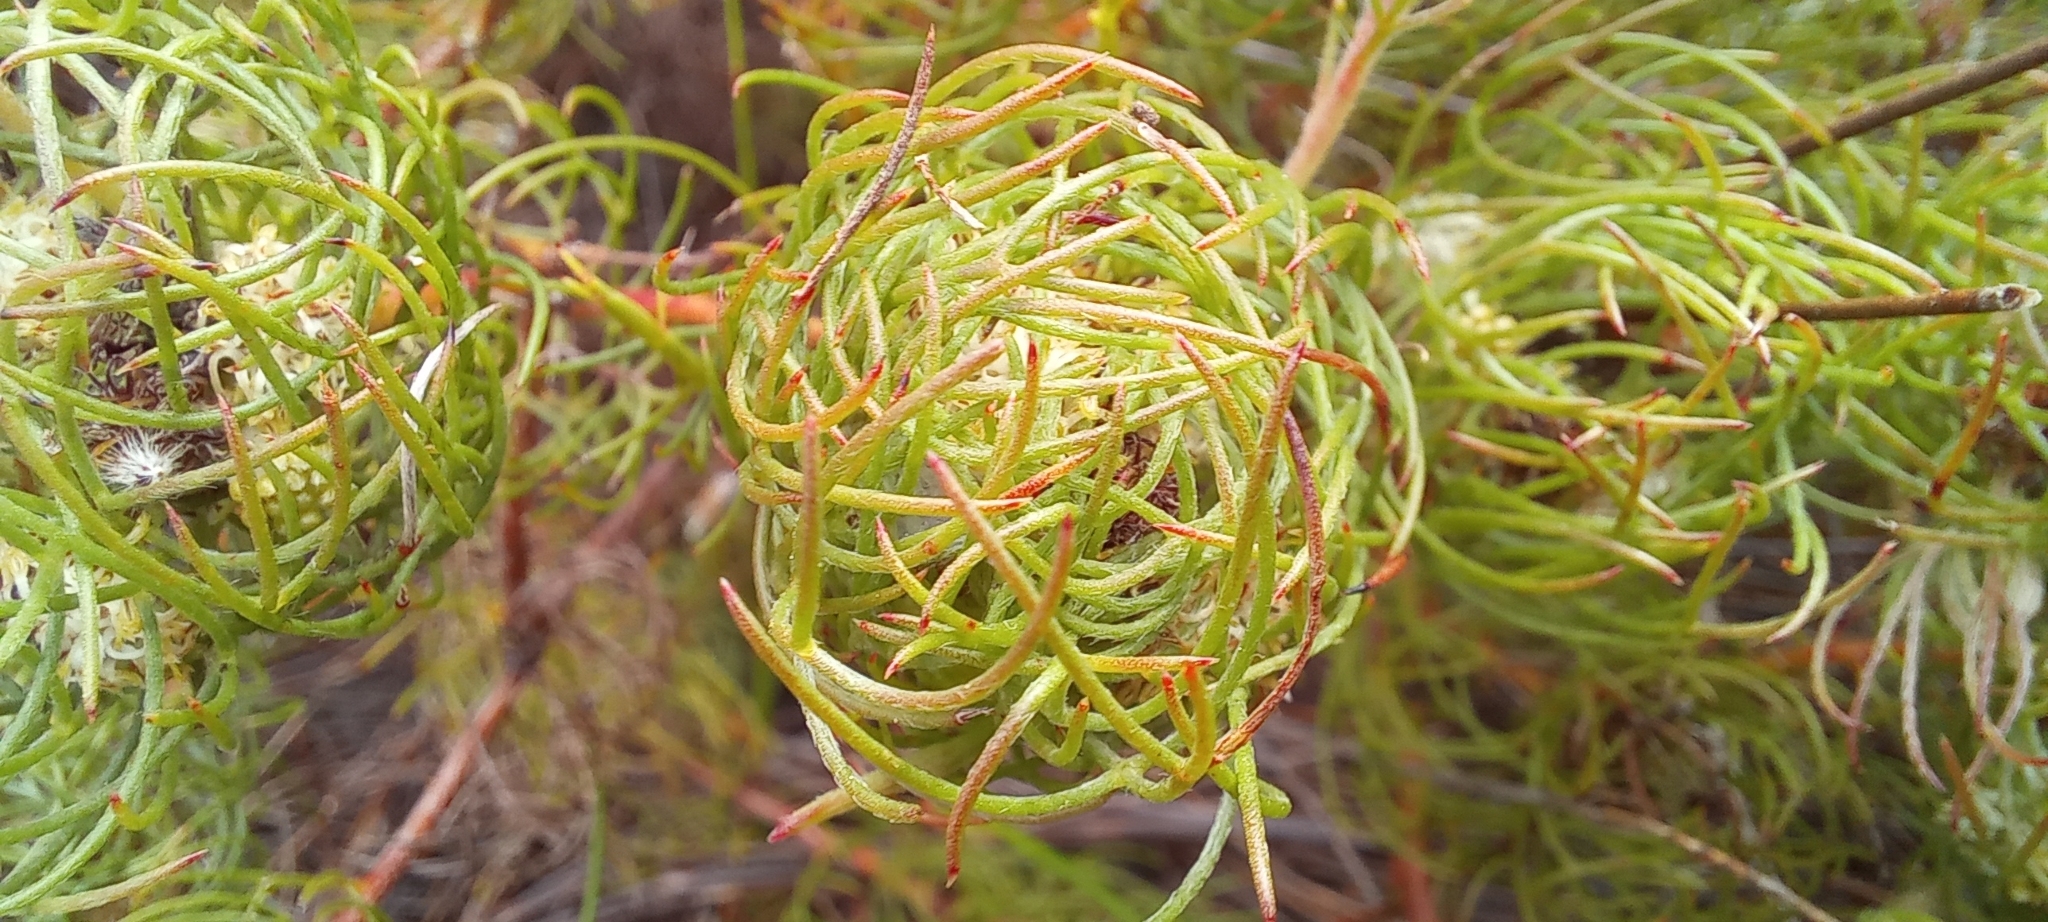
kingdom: Plantae
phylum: Tracheophyta
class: Magnoliopsida
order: Proteales
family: Proteaceae
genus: Serruria
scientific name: Serruria inconspicua
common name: Cryptic spiderhead
